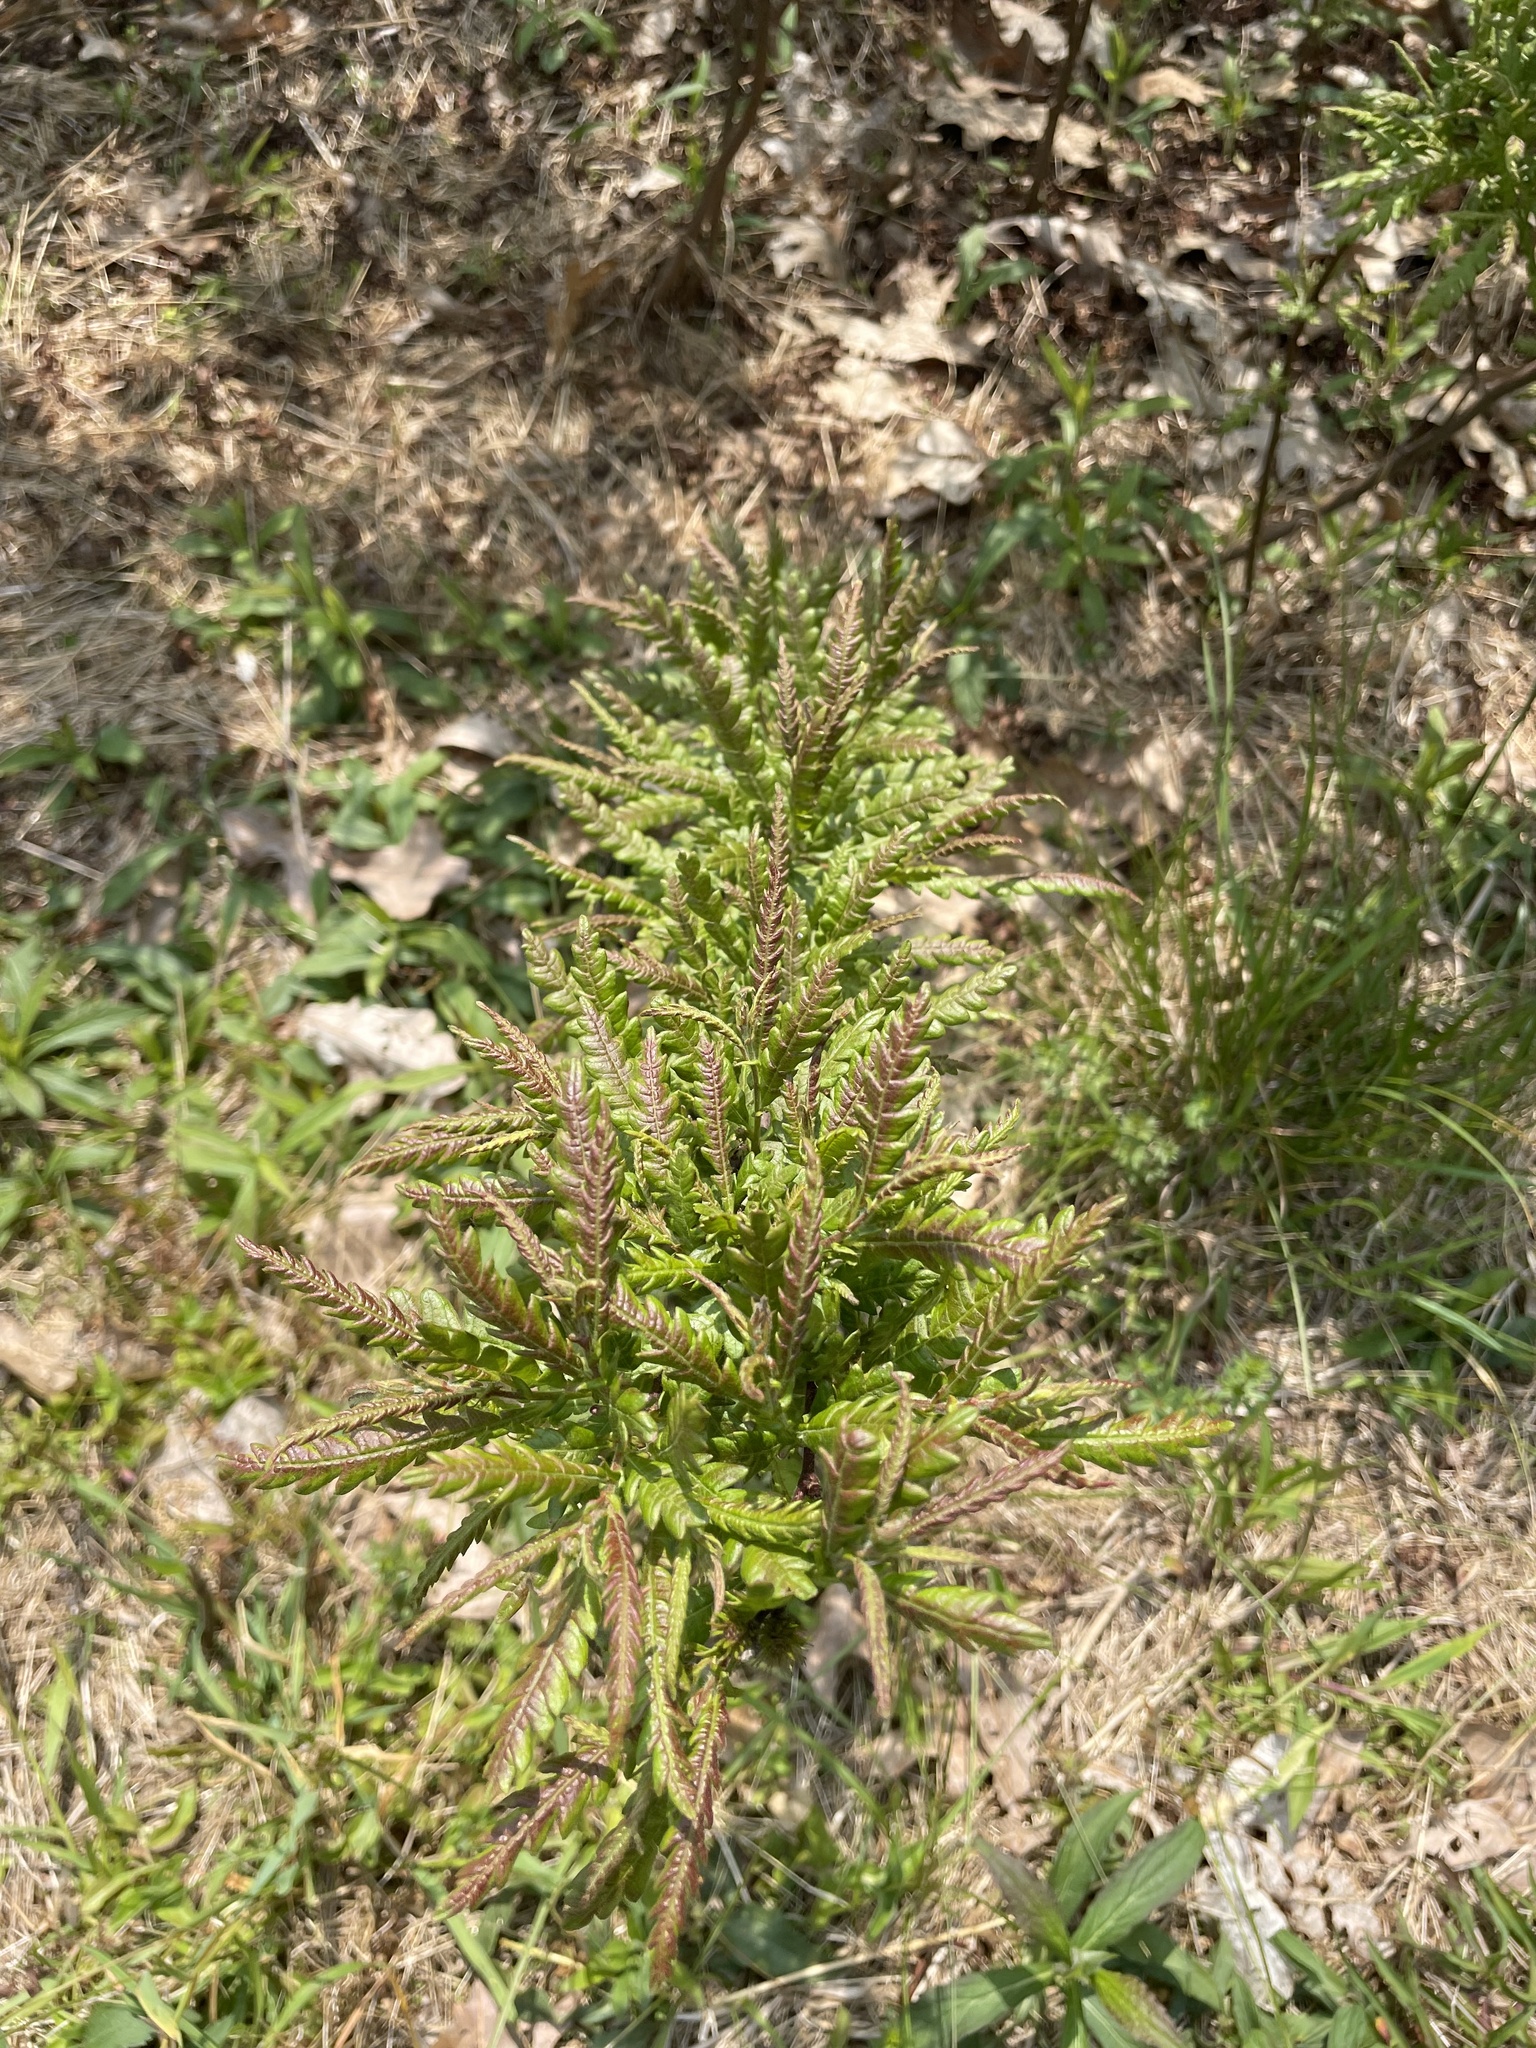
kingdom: Plantae
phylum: Tracheophyta
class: Magnoliopsida
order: Fagales
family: Myricaceae
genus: Comptonia
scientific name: Comptonia peregrina
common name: Sweet-fern
